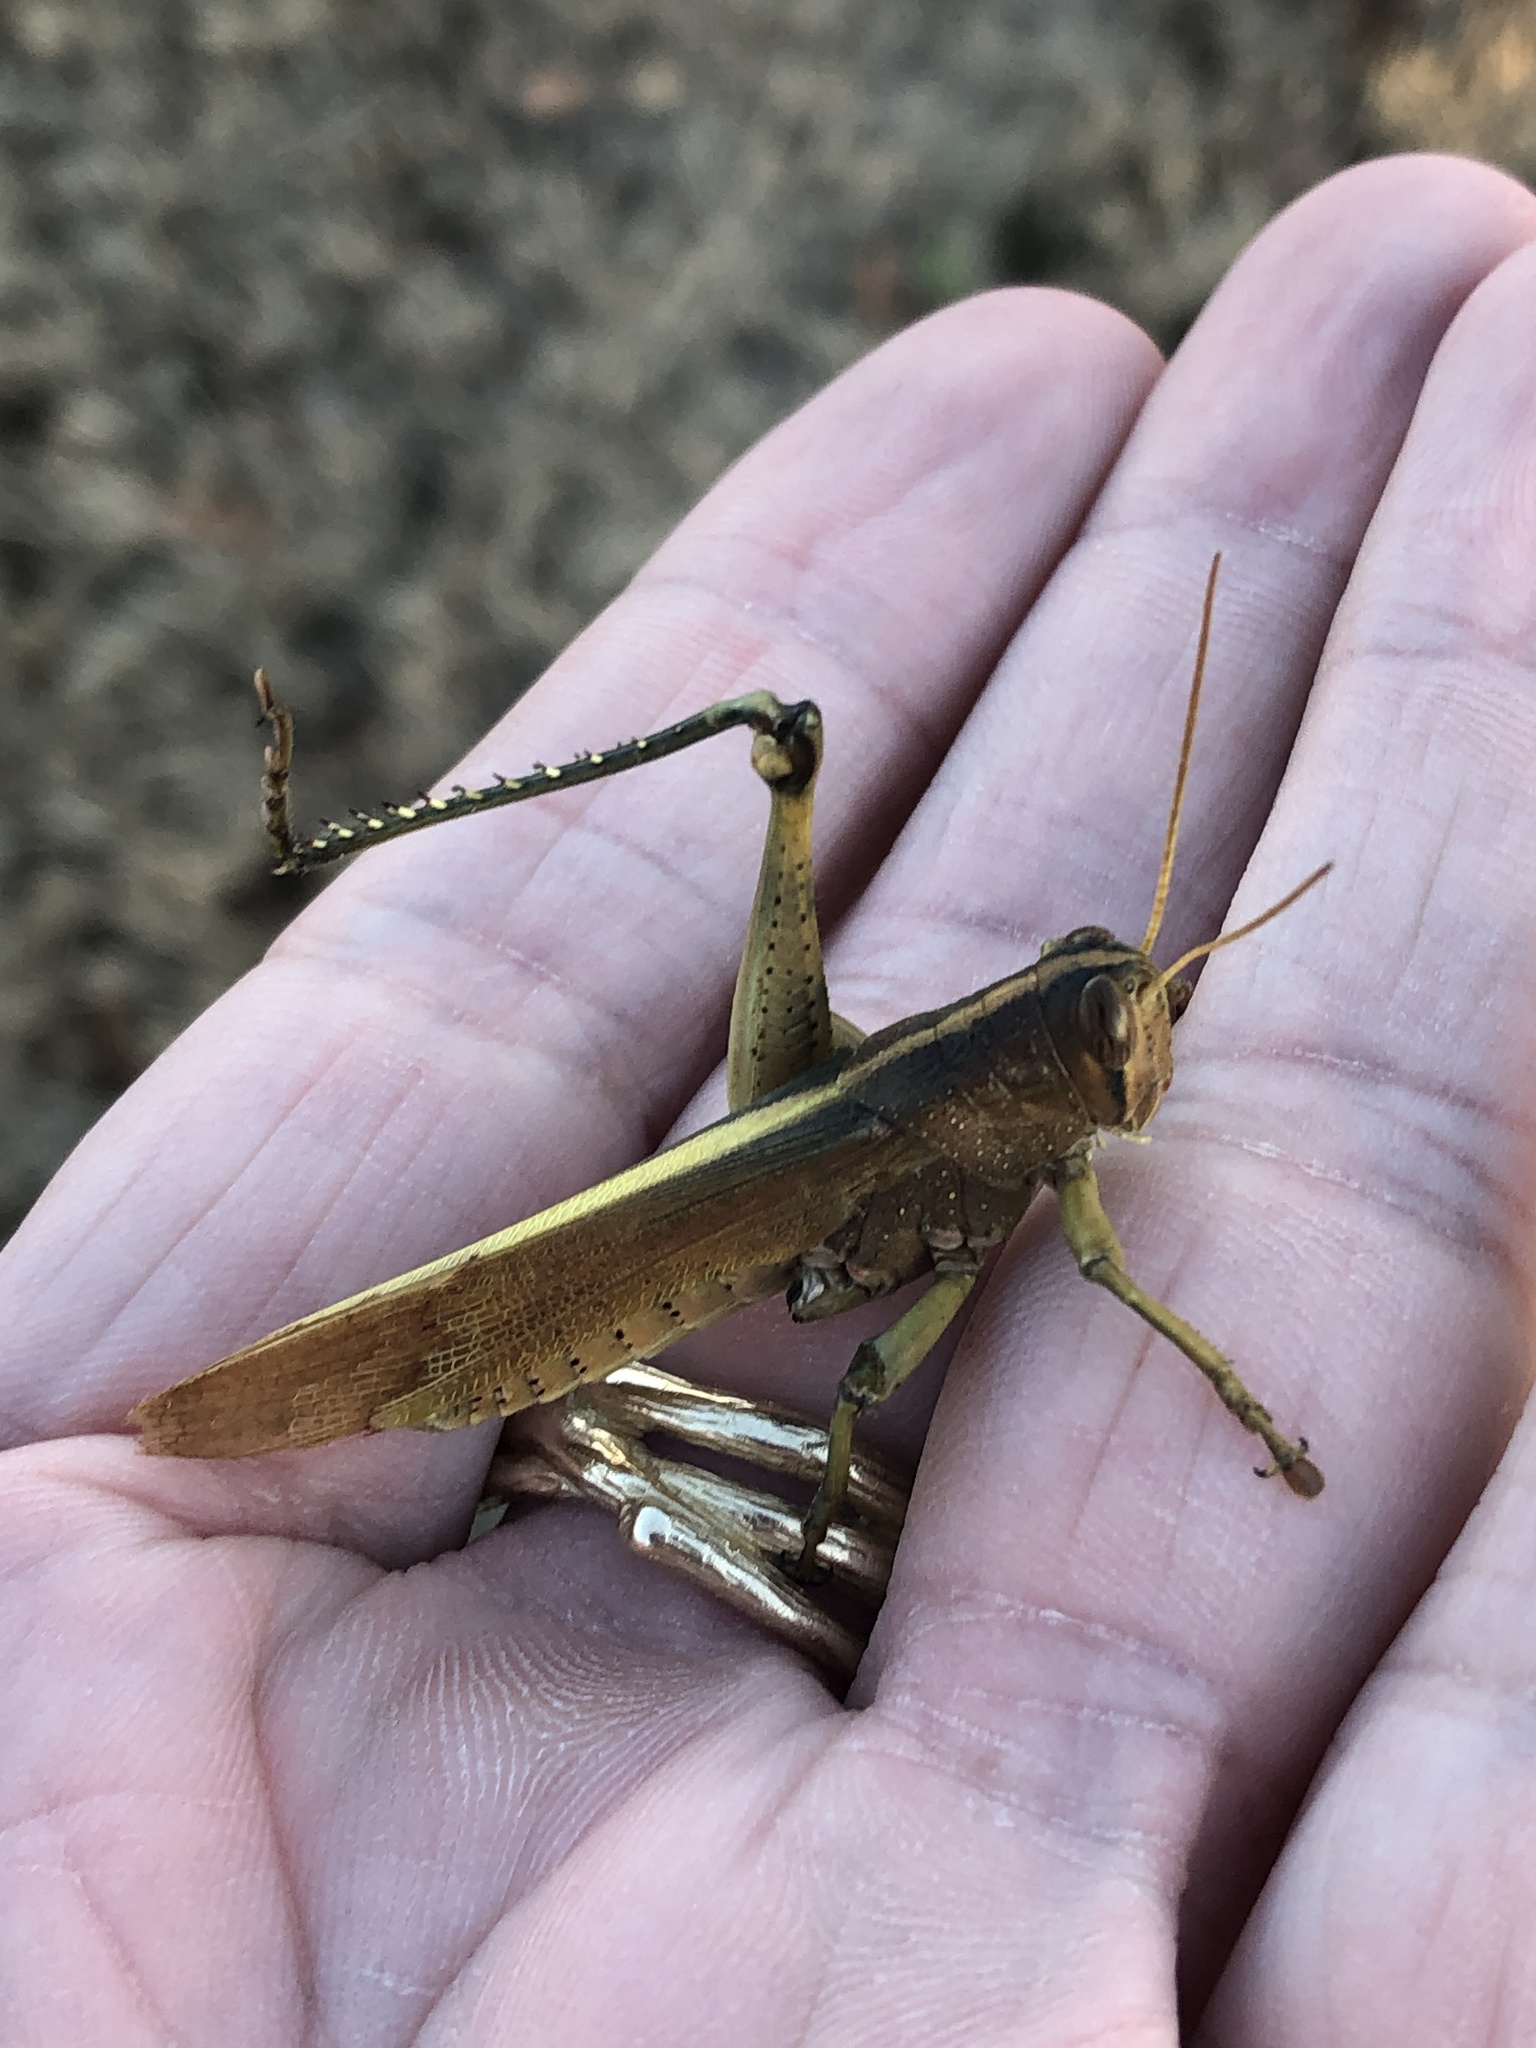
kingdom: Animalia
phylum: Arthropoda
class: Insecta
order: Orthoptera
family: Acrididae
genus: Schistocerca
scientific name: Schistocerca lineata
